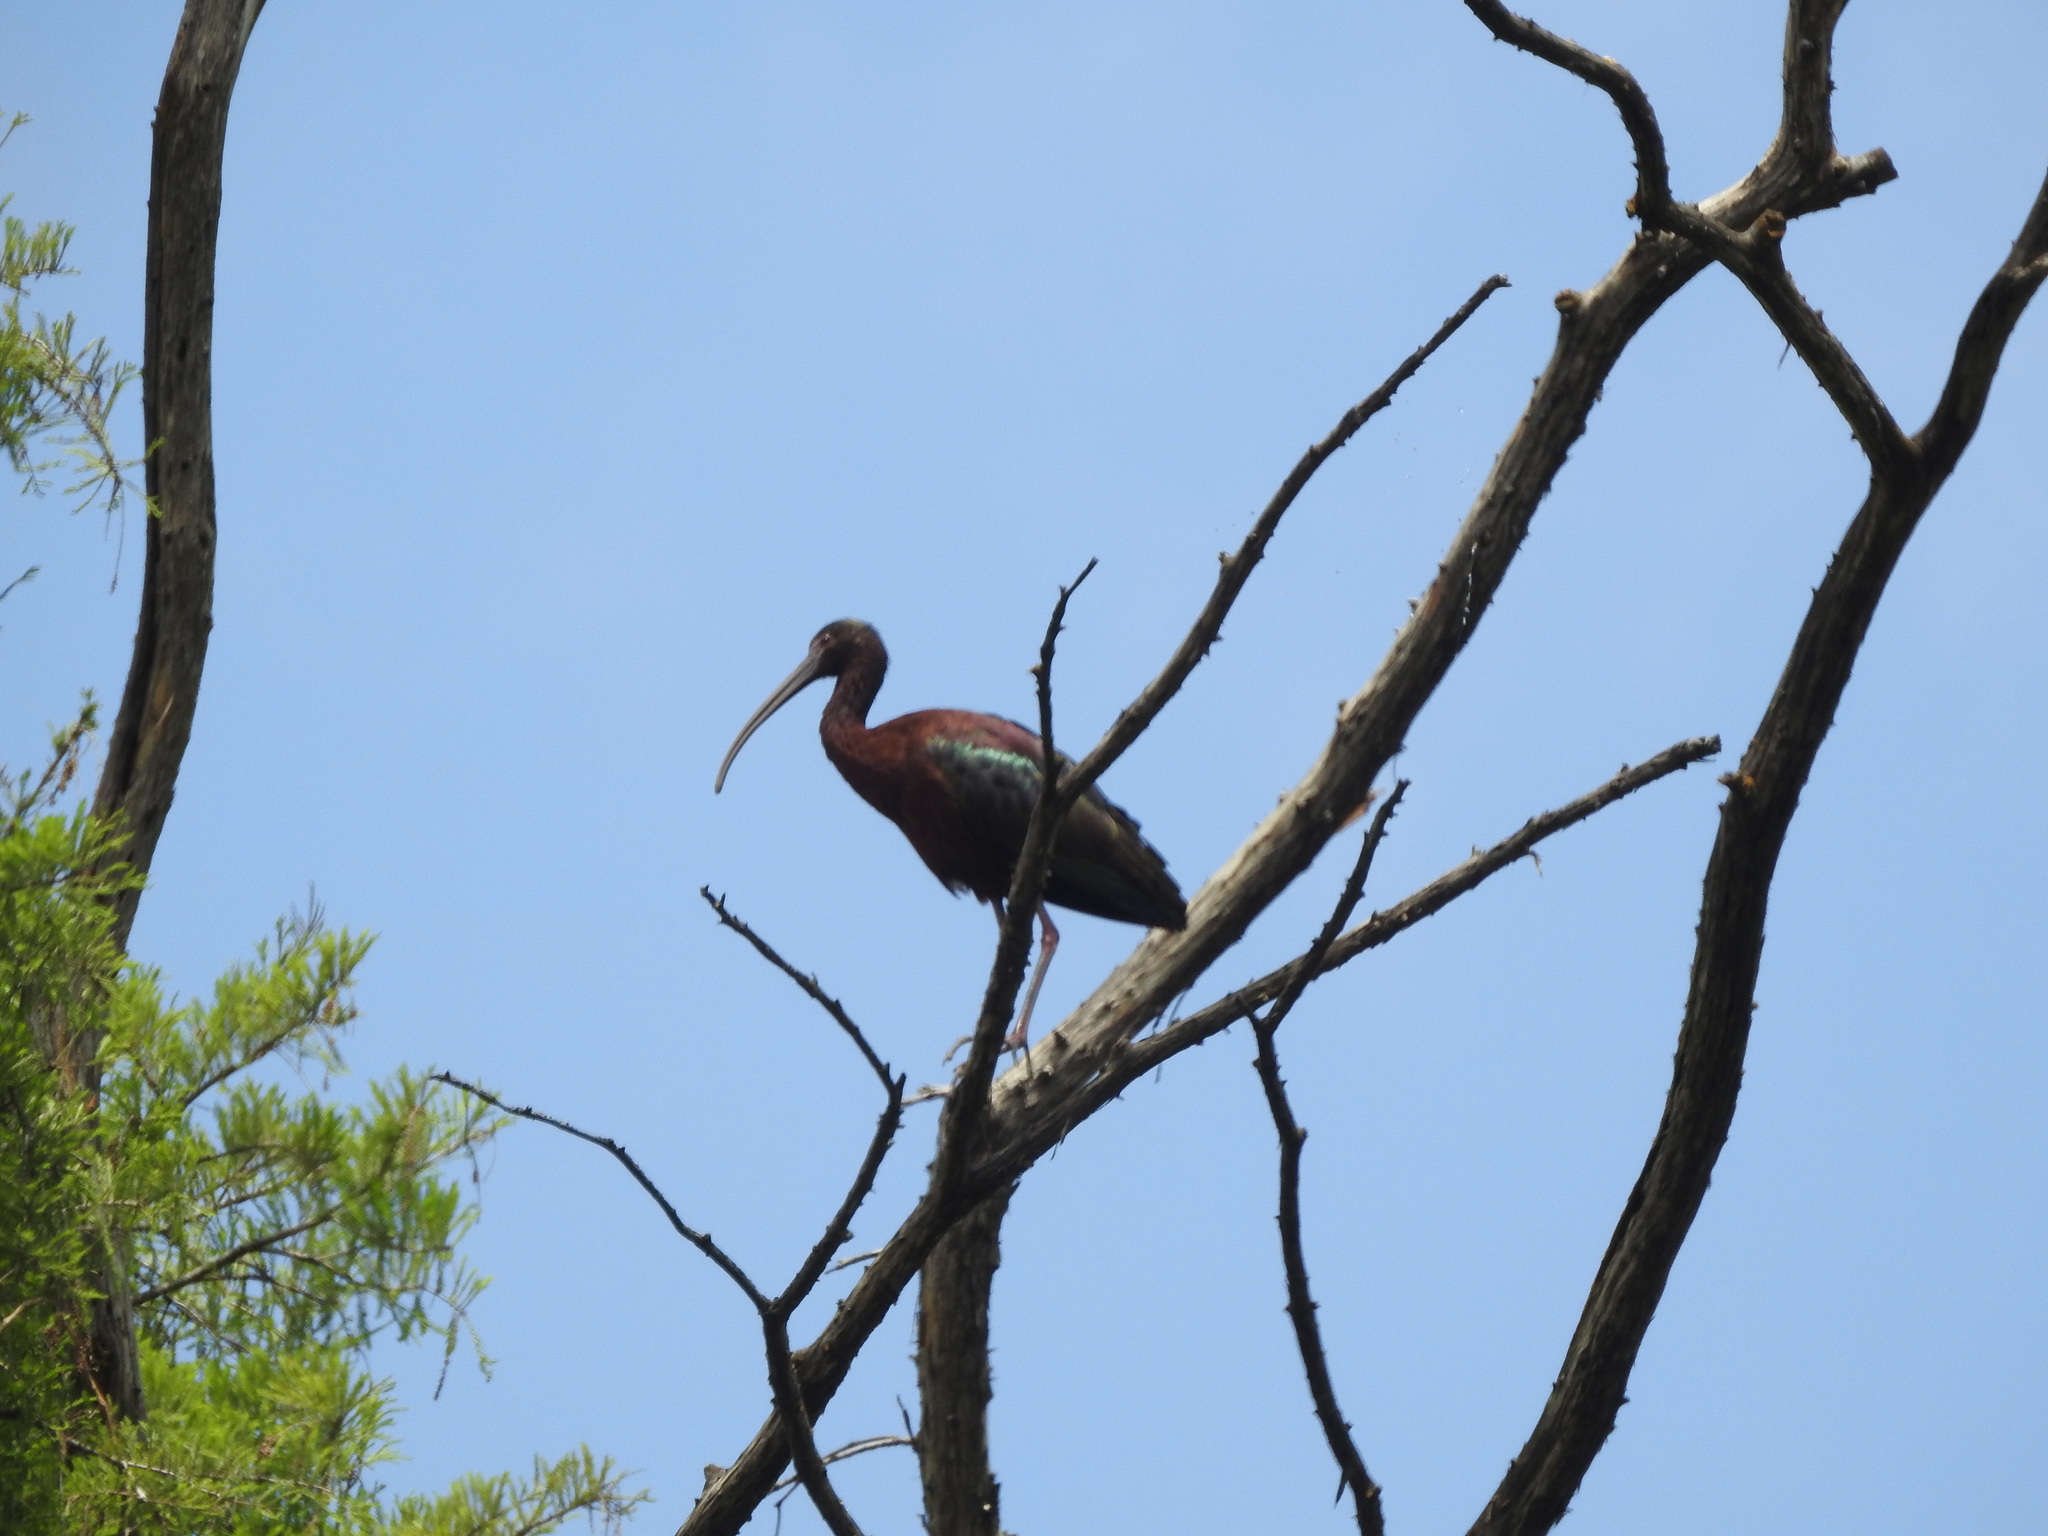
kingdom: Animalia
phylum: Chordata
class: Aves
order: Pelecaniformes
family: Threskiornithidae
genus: Plegadis
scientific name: Plegadis chihi
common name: White-faced ibis
